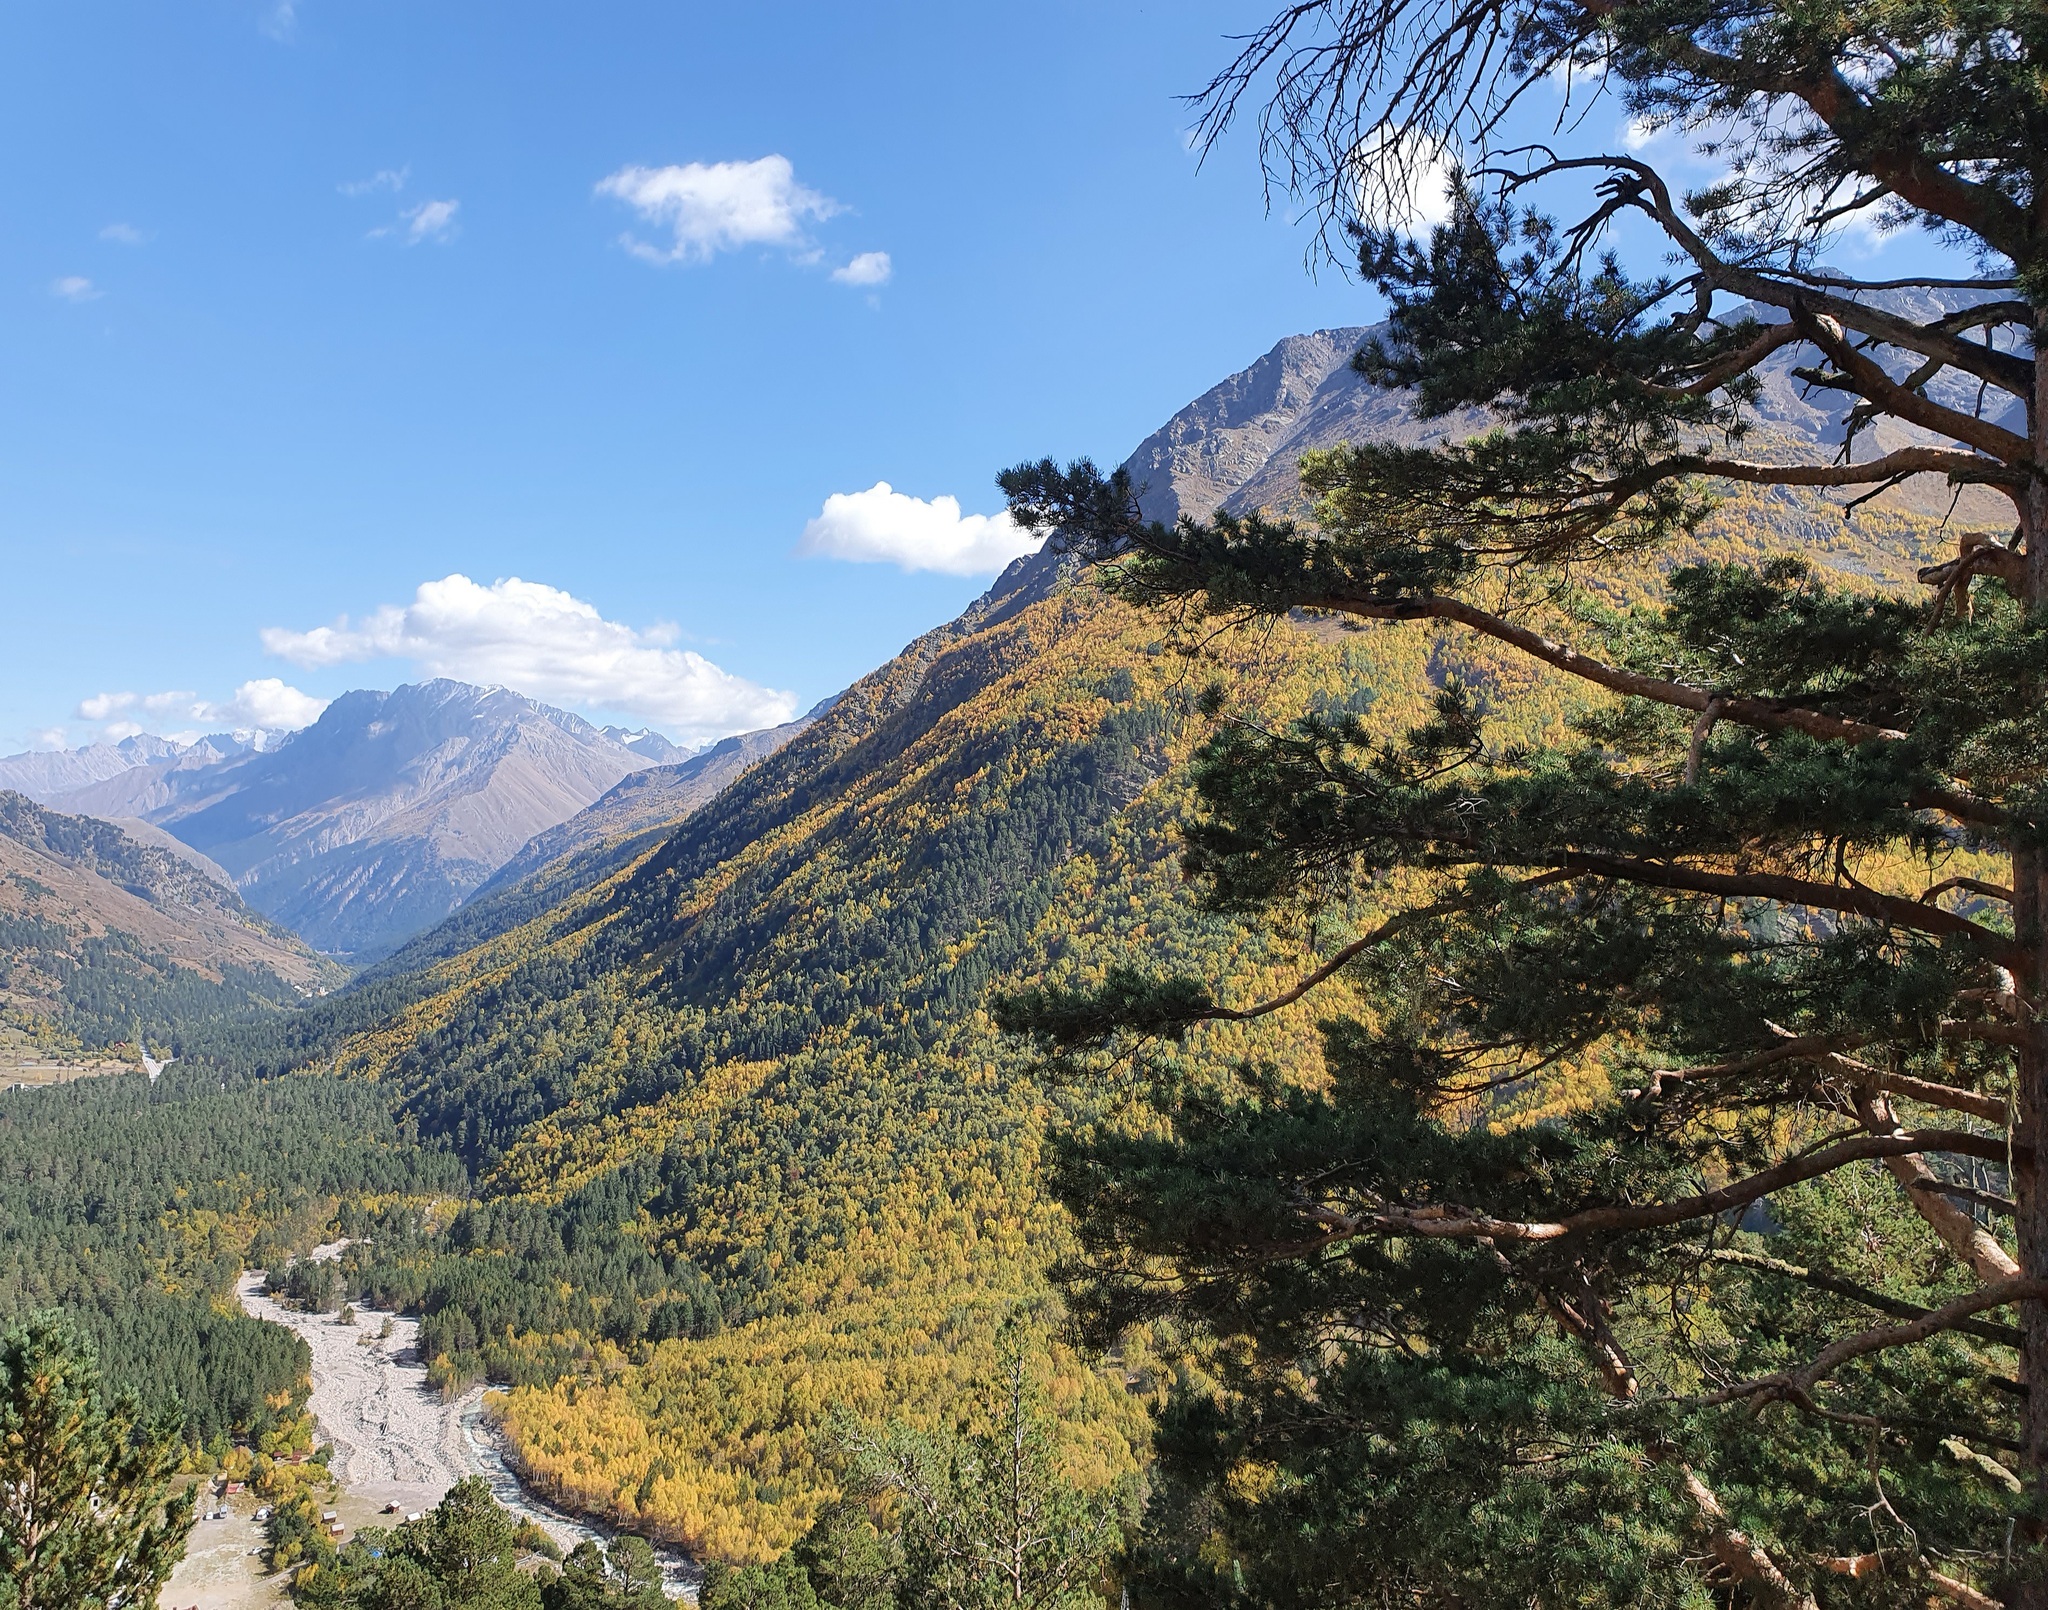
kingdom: Plantae
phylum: Tracheophyta
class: Pinopsida
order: Pinales
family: Pinaceae
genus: Pinus
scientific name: Pinus sylvestris
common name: Scots pine
